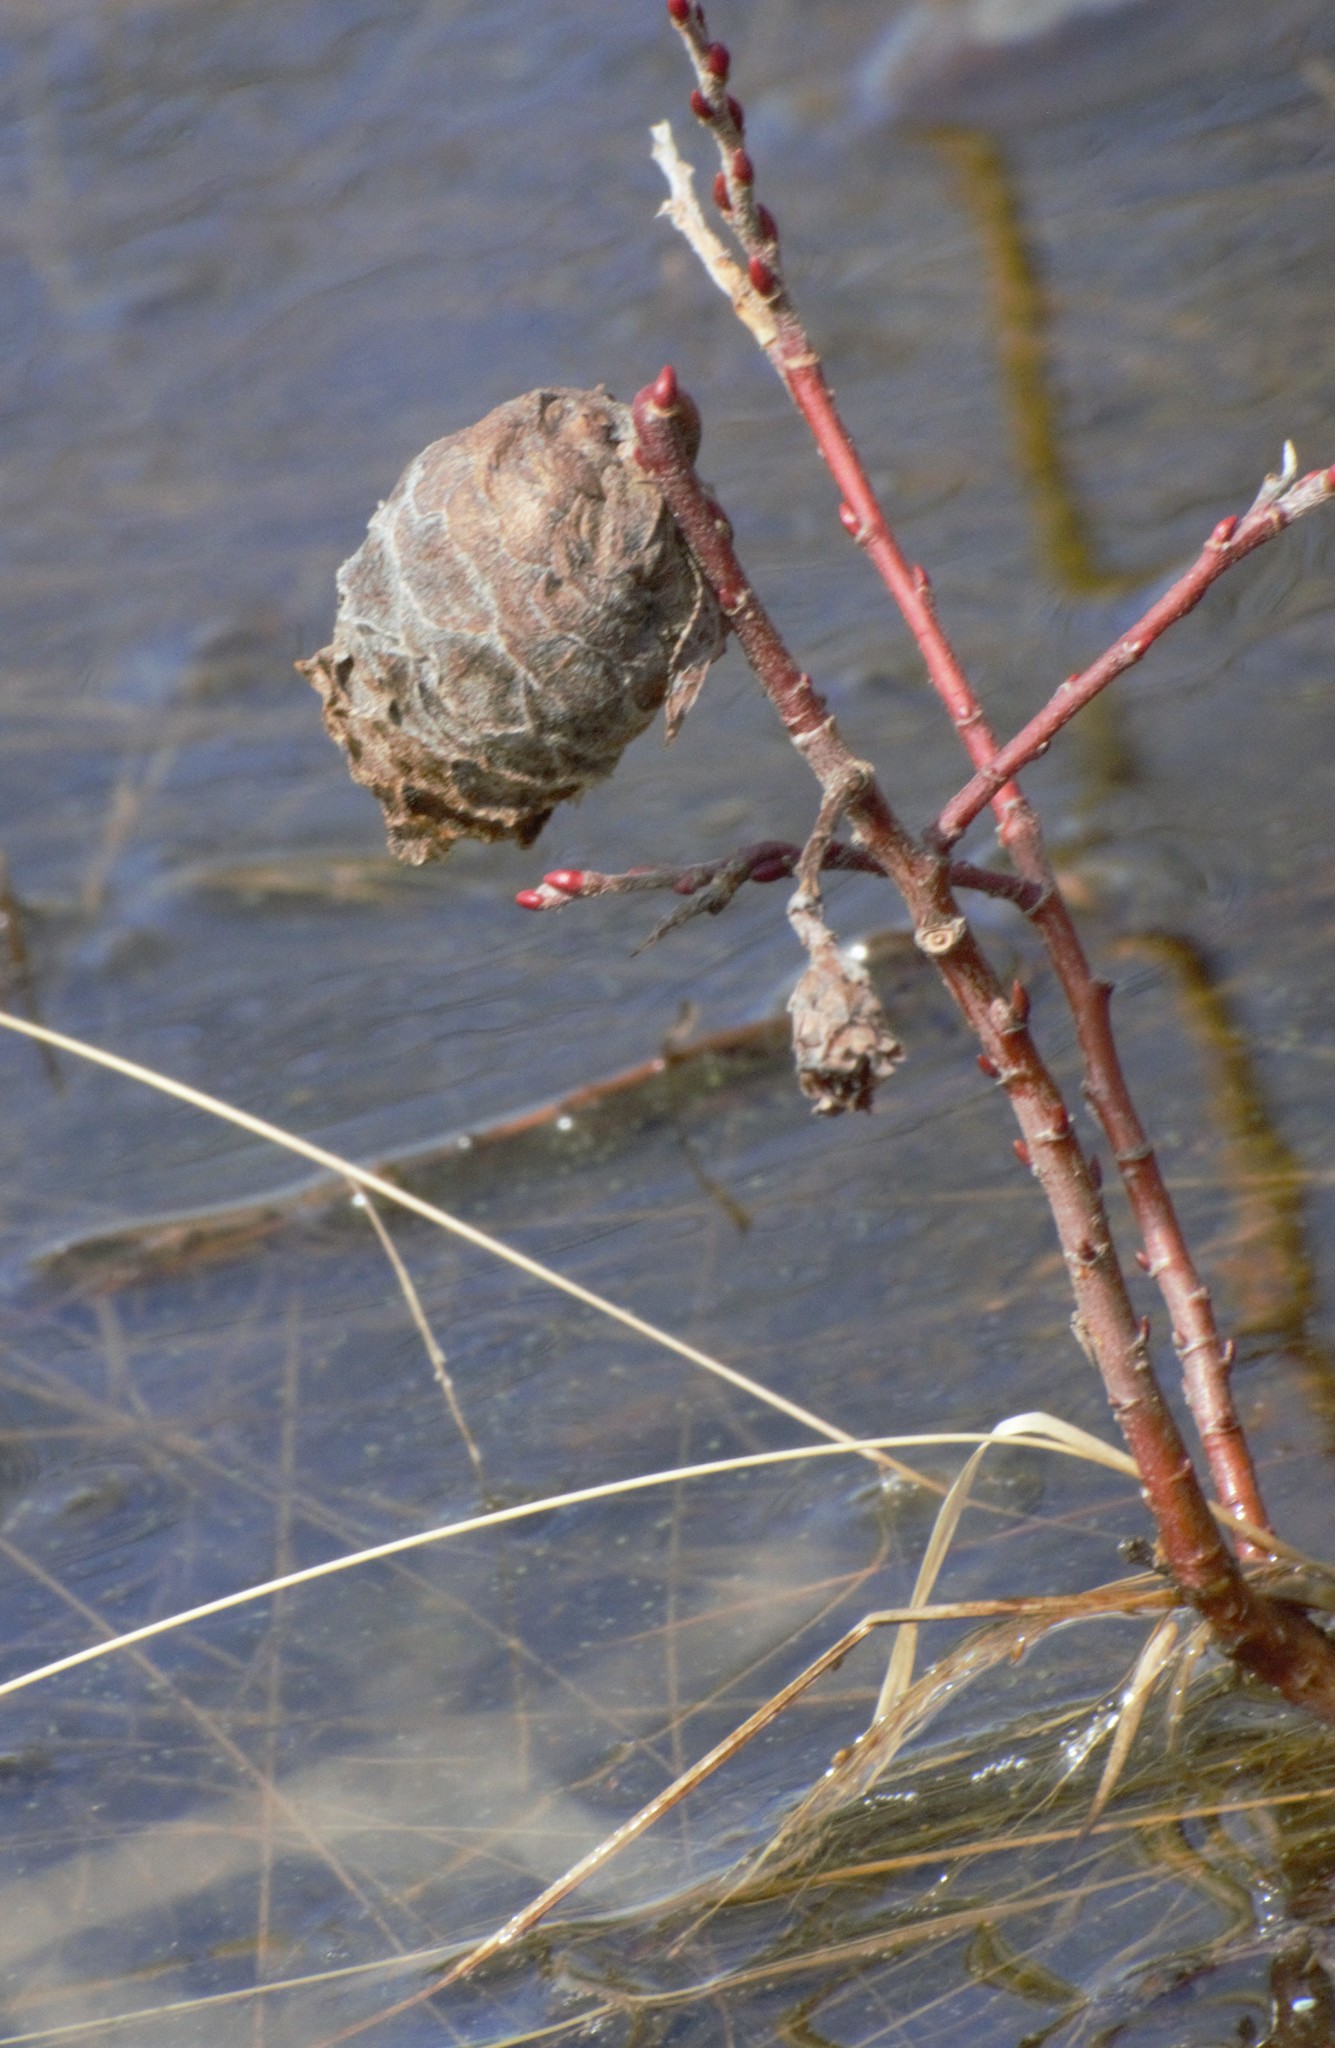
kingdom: Animalia
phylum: Arthropoda
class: Insecta
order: Diptera
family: Cecidomyiidae
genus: Rabdophaga
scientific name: Rabdophaga strobiloides
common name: Willow pinecone gall midge
